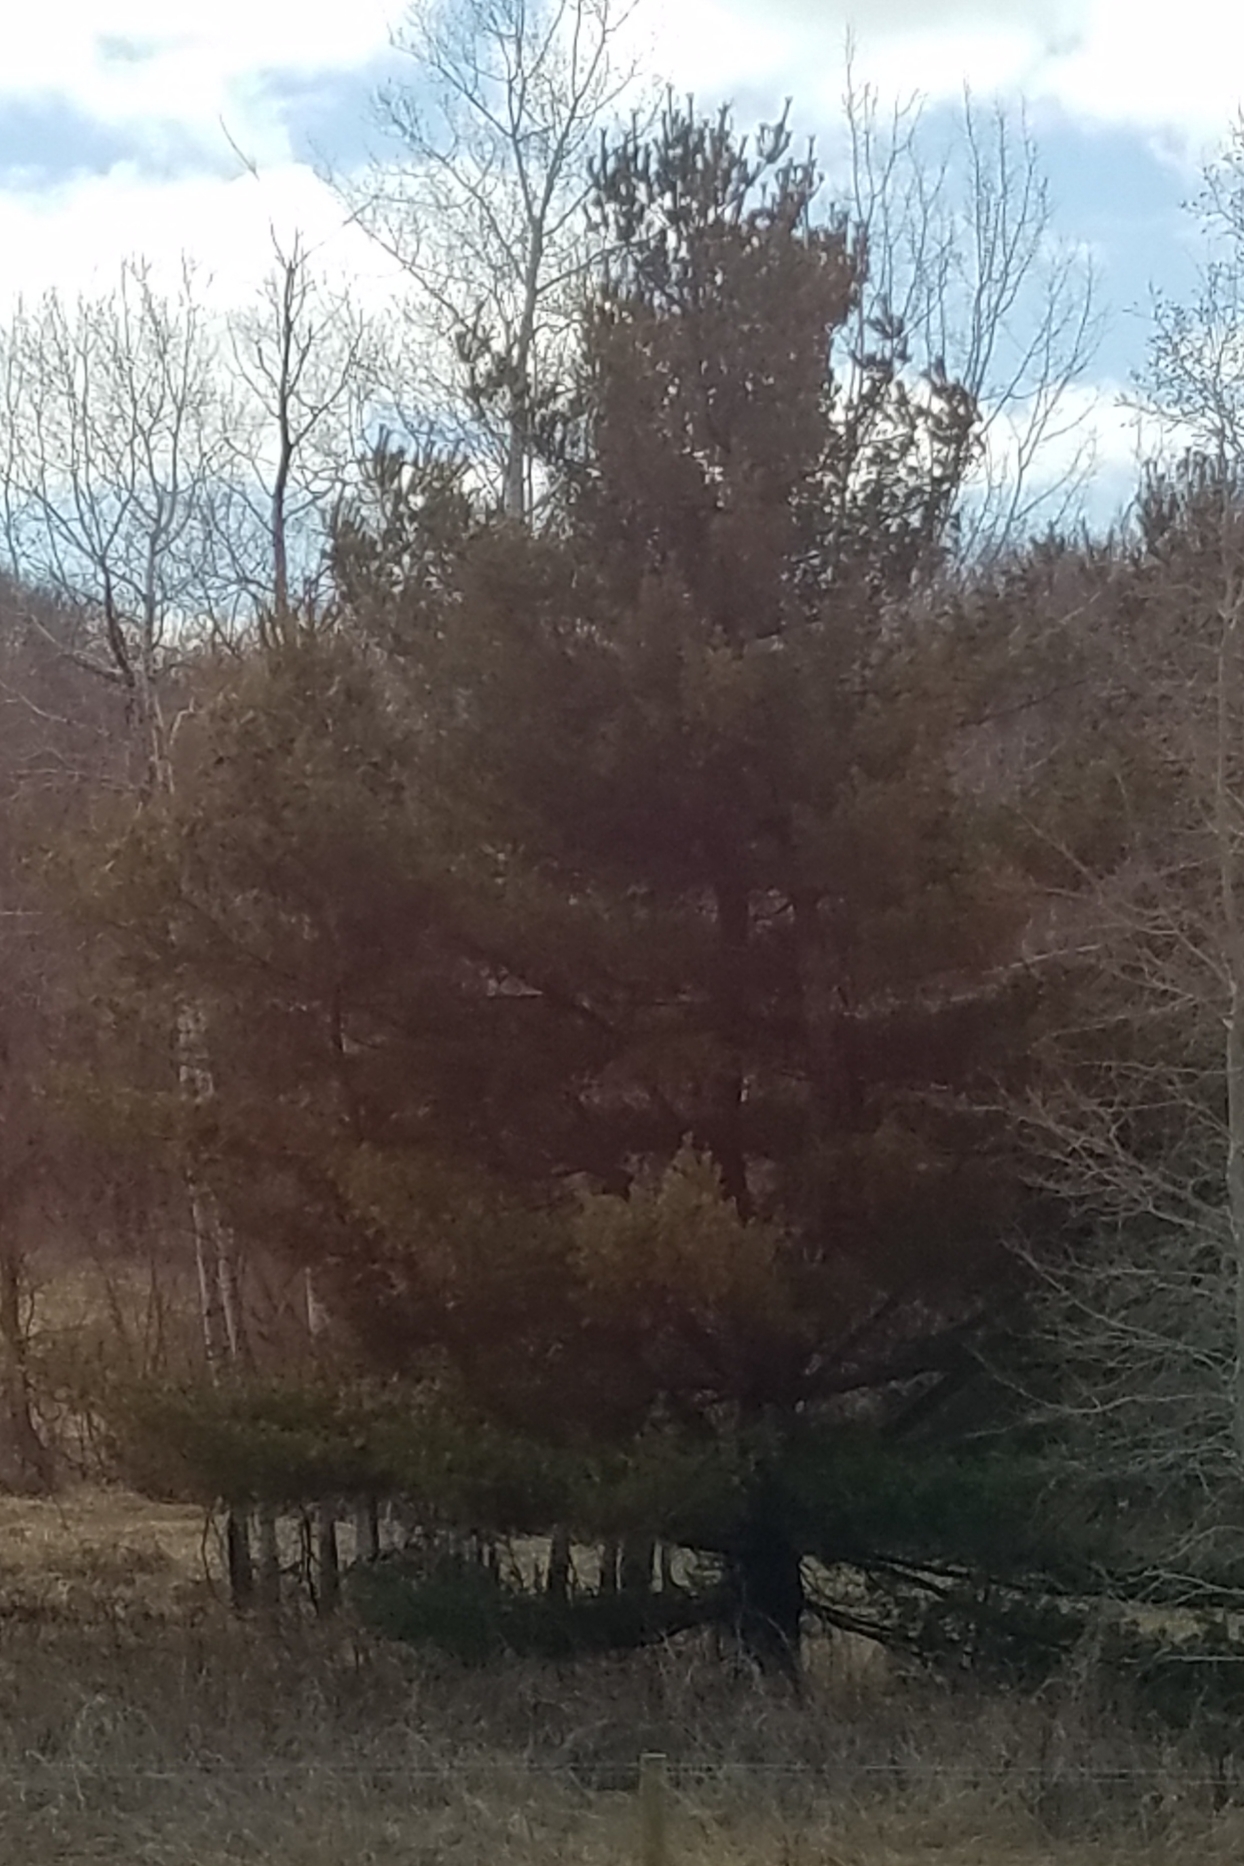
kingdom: Plantae
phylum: Tracheophyta
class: Pinopsida
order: Pinales
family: Pinaceae
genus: Pinus
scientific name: Pinus strobus
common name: Weymouth pine
